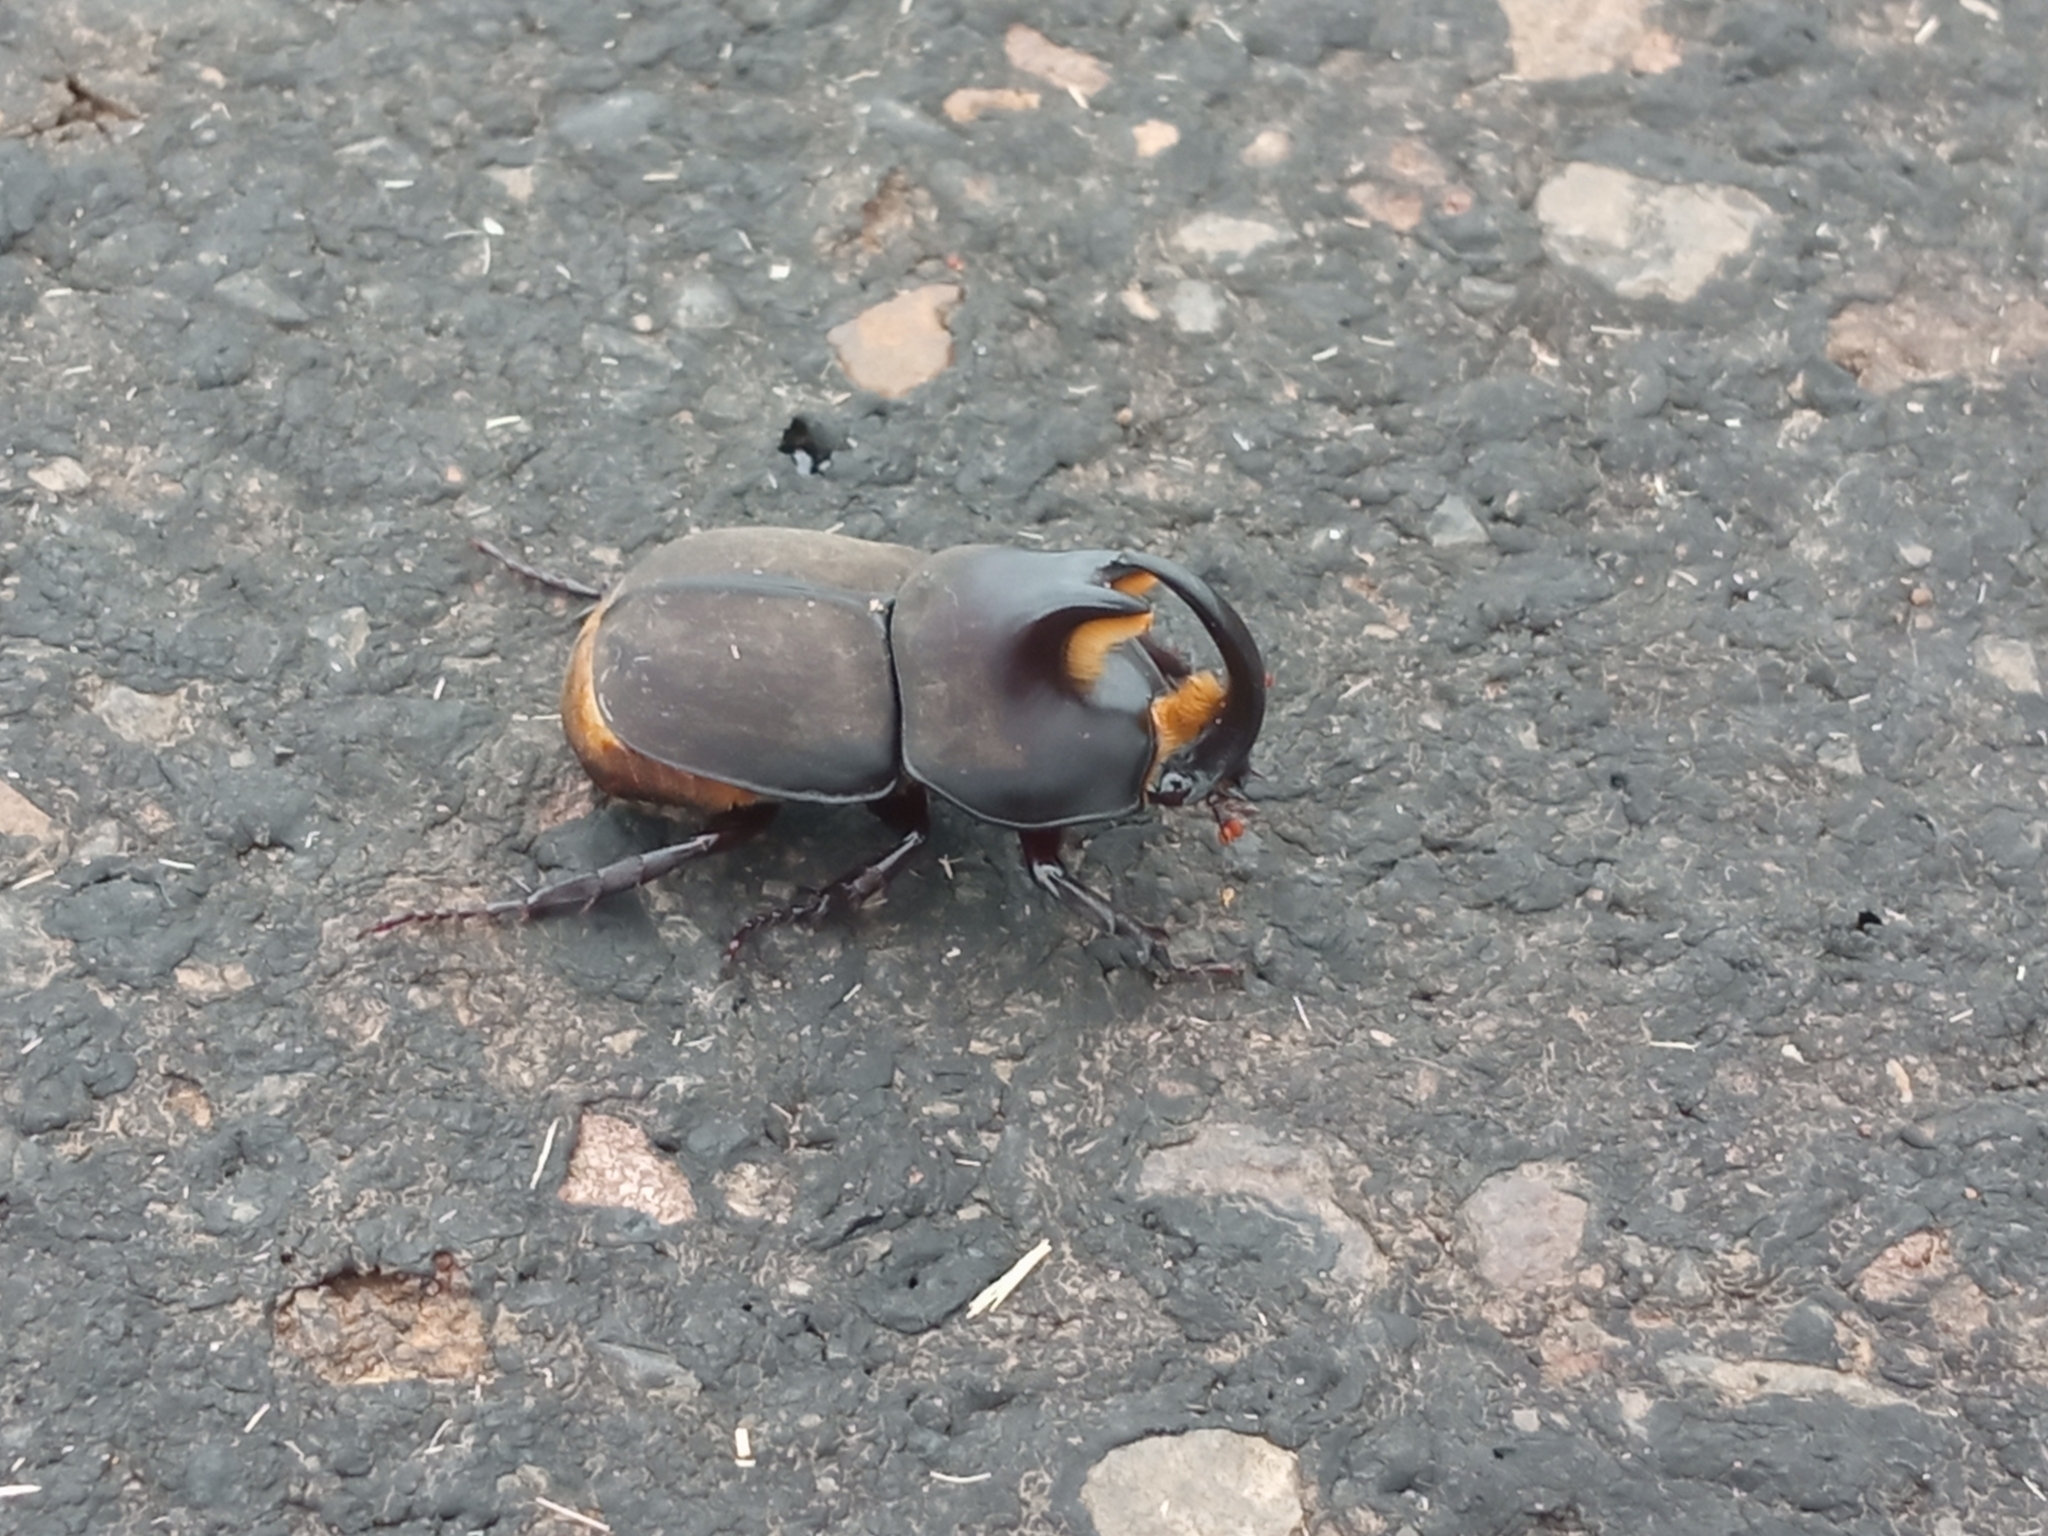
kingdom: Animalia
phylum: Arthropoda
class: Insecta
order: Coleoptera
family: Scarabaeidae
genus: Diloboderus
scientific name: Diloboderus abderus
